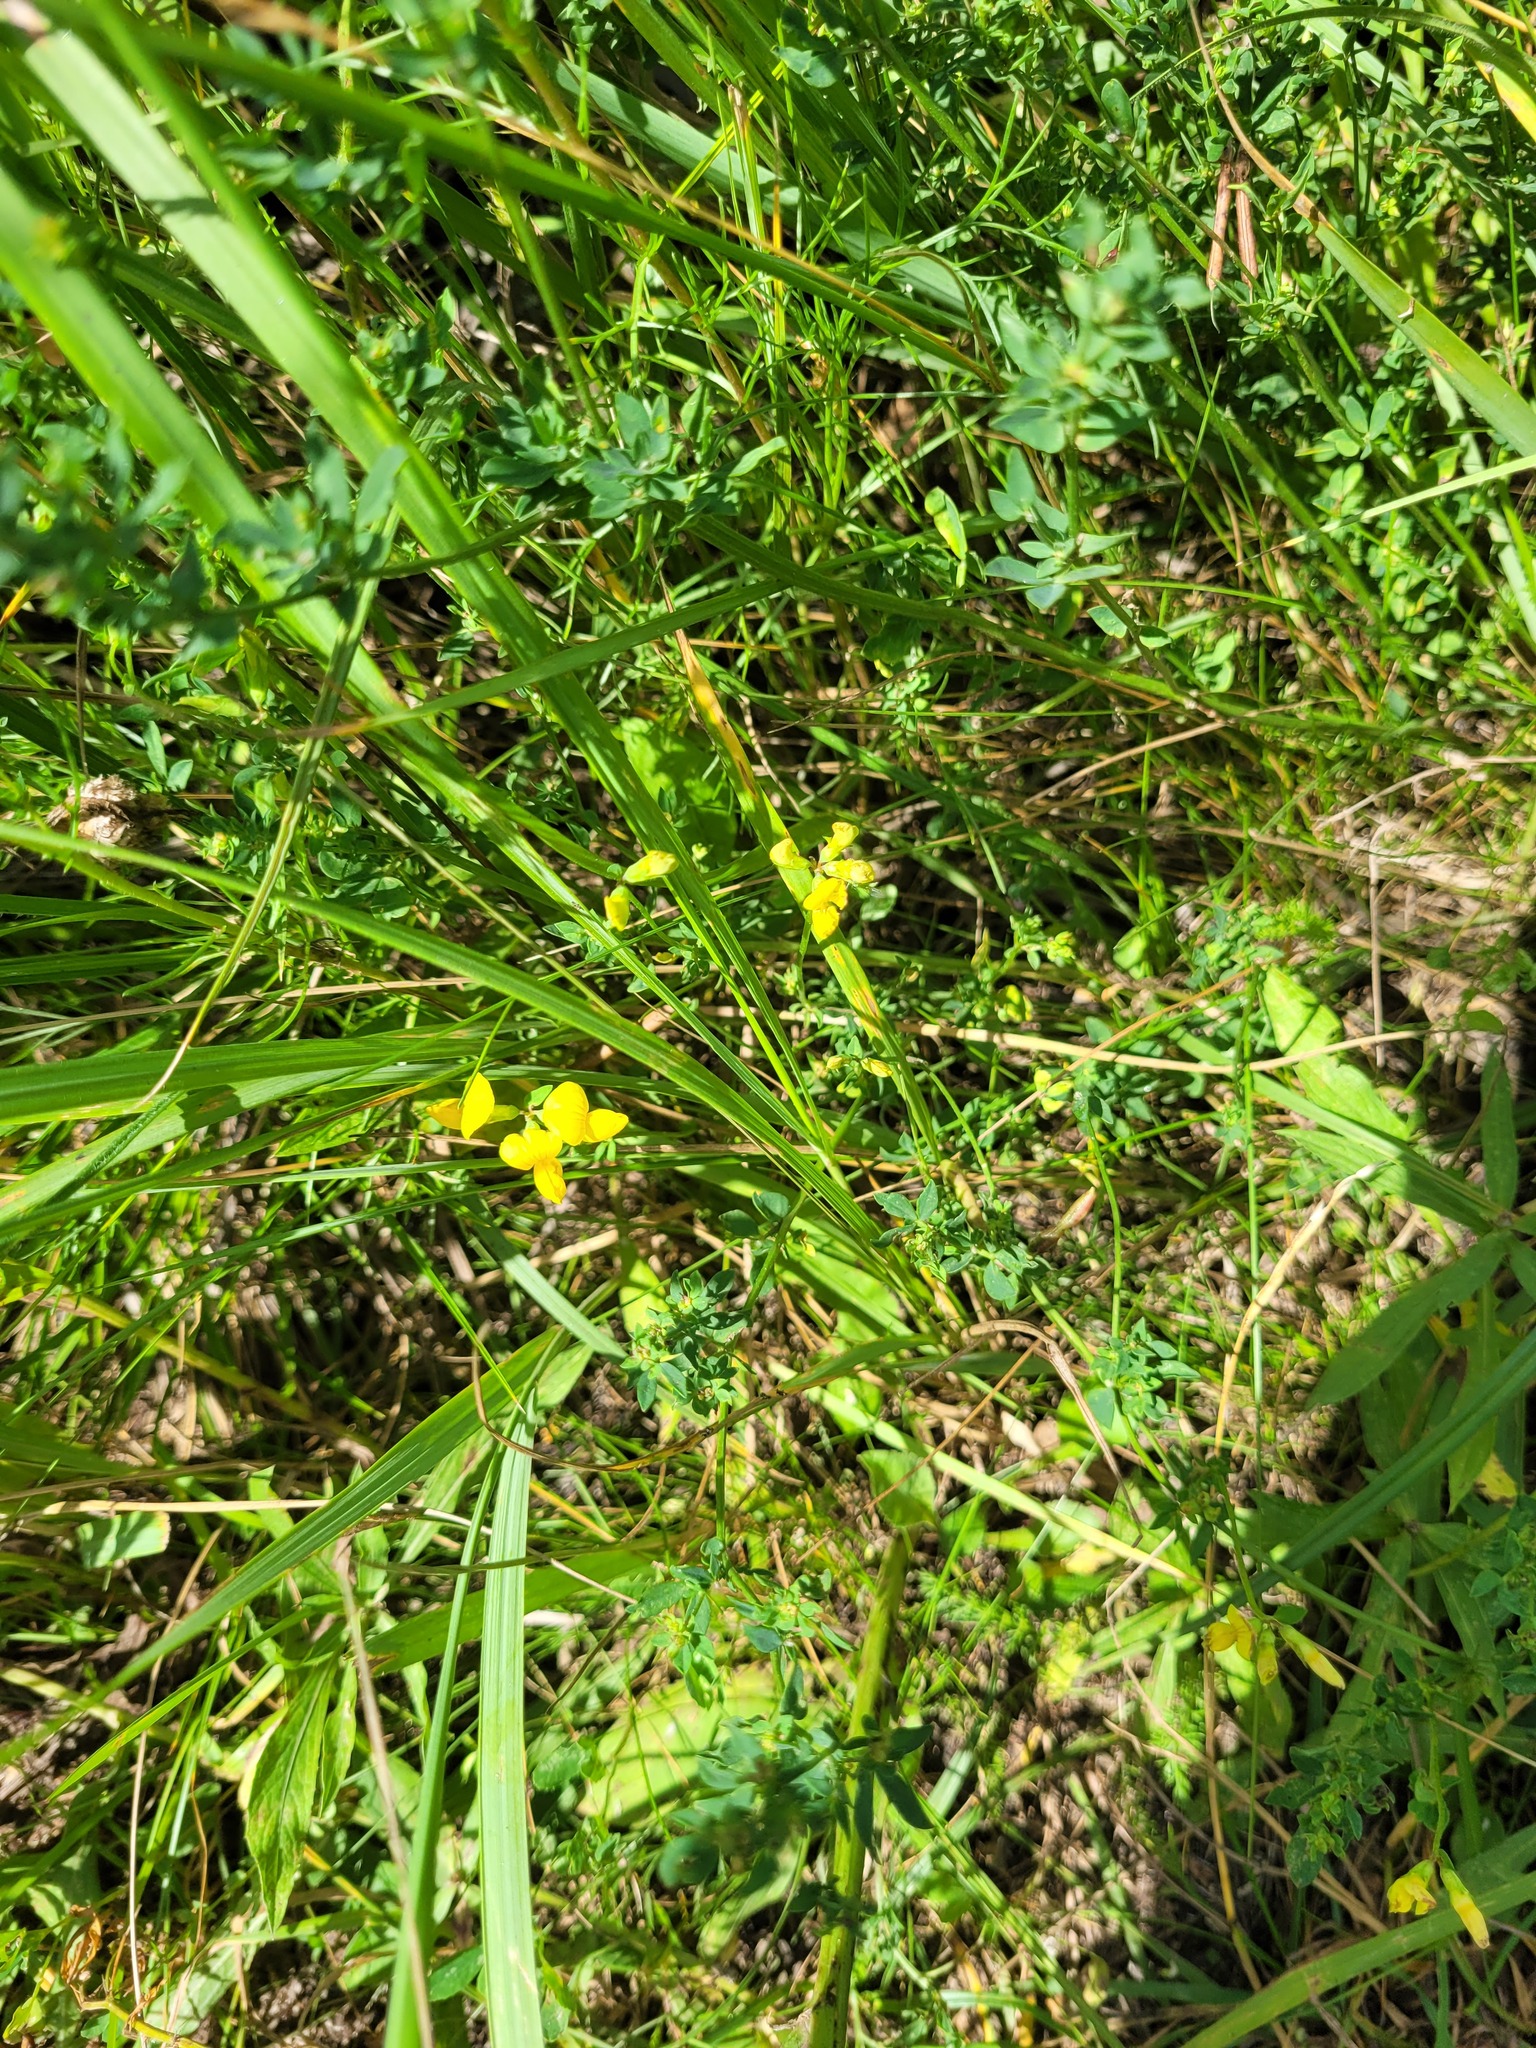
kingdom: Plantae
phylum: Tracheophyta
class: Magnoliopsida
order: Fabales
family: Fabaceae
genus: Lotus
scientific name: Lotus corniculatus
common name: Common bird's-foot-trefoil
